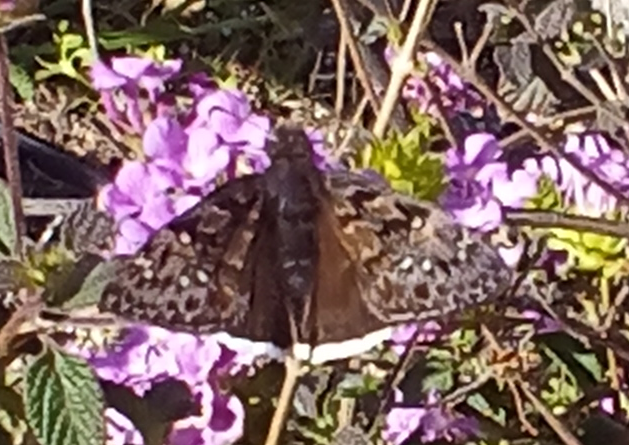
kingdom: Animalia
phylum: Arthropoda
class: Insecta
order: Lepidoptera
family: Hesperiidae
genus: Erynnis
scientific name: Erynnis tristis
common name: Mournful duskywing
